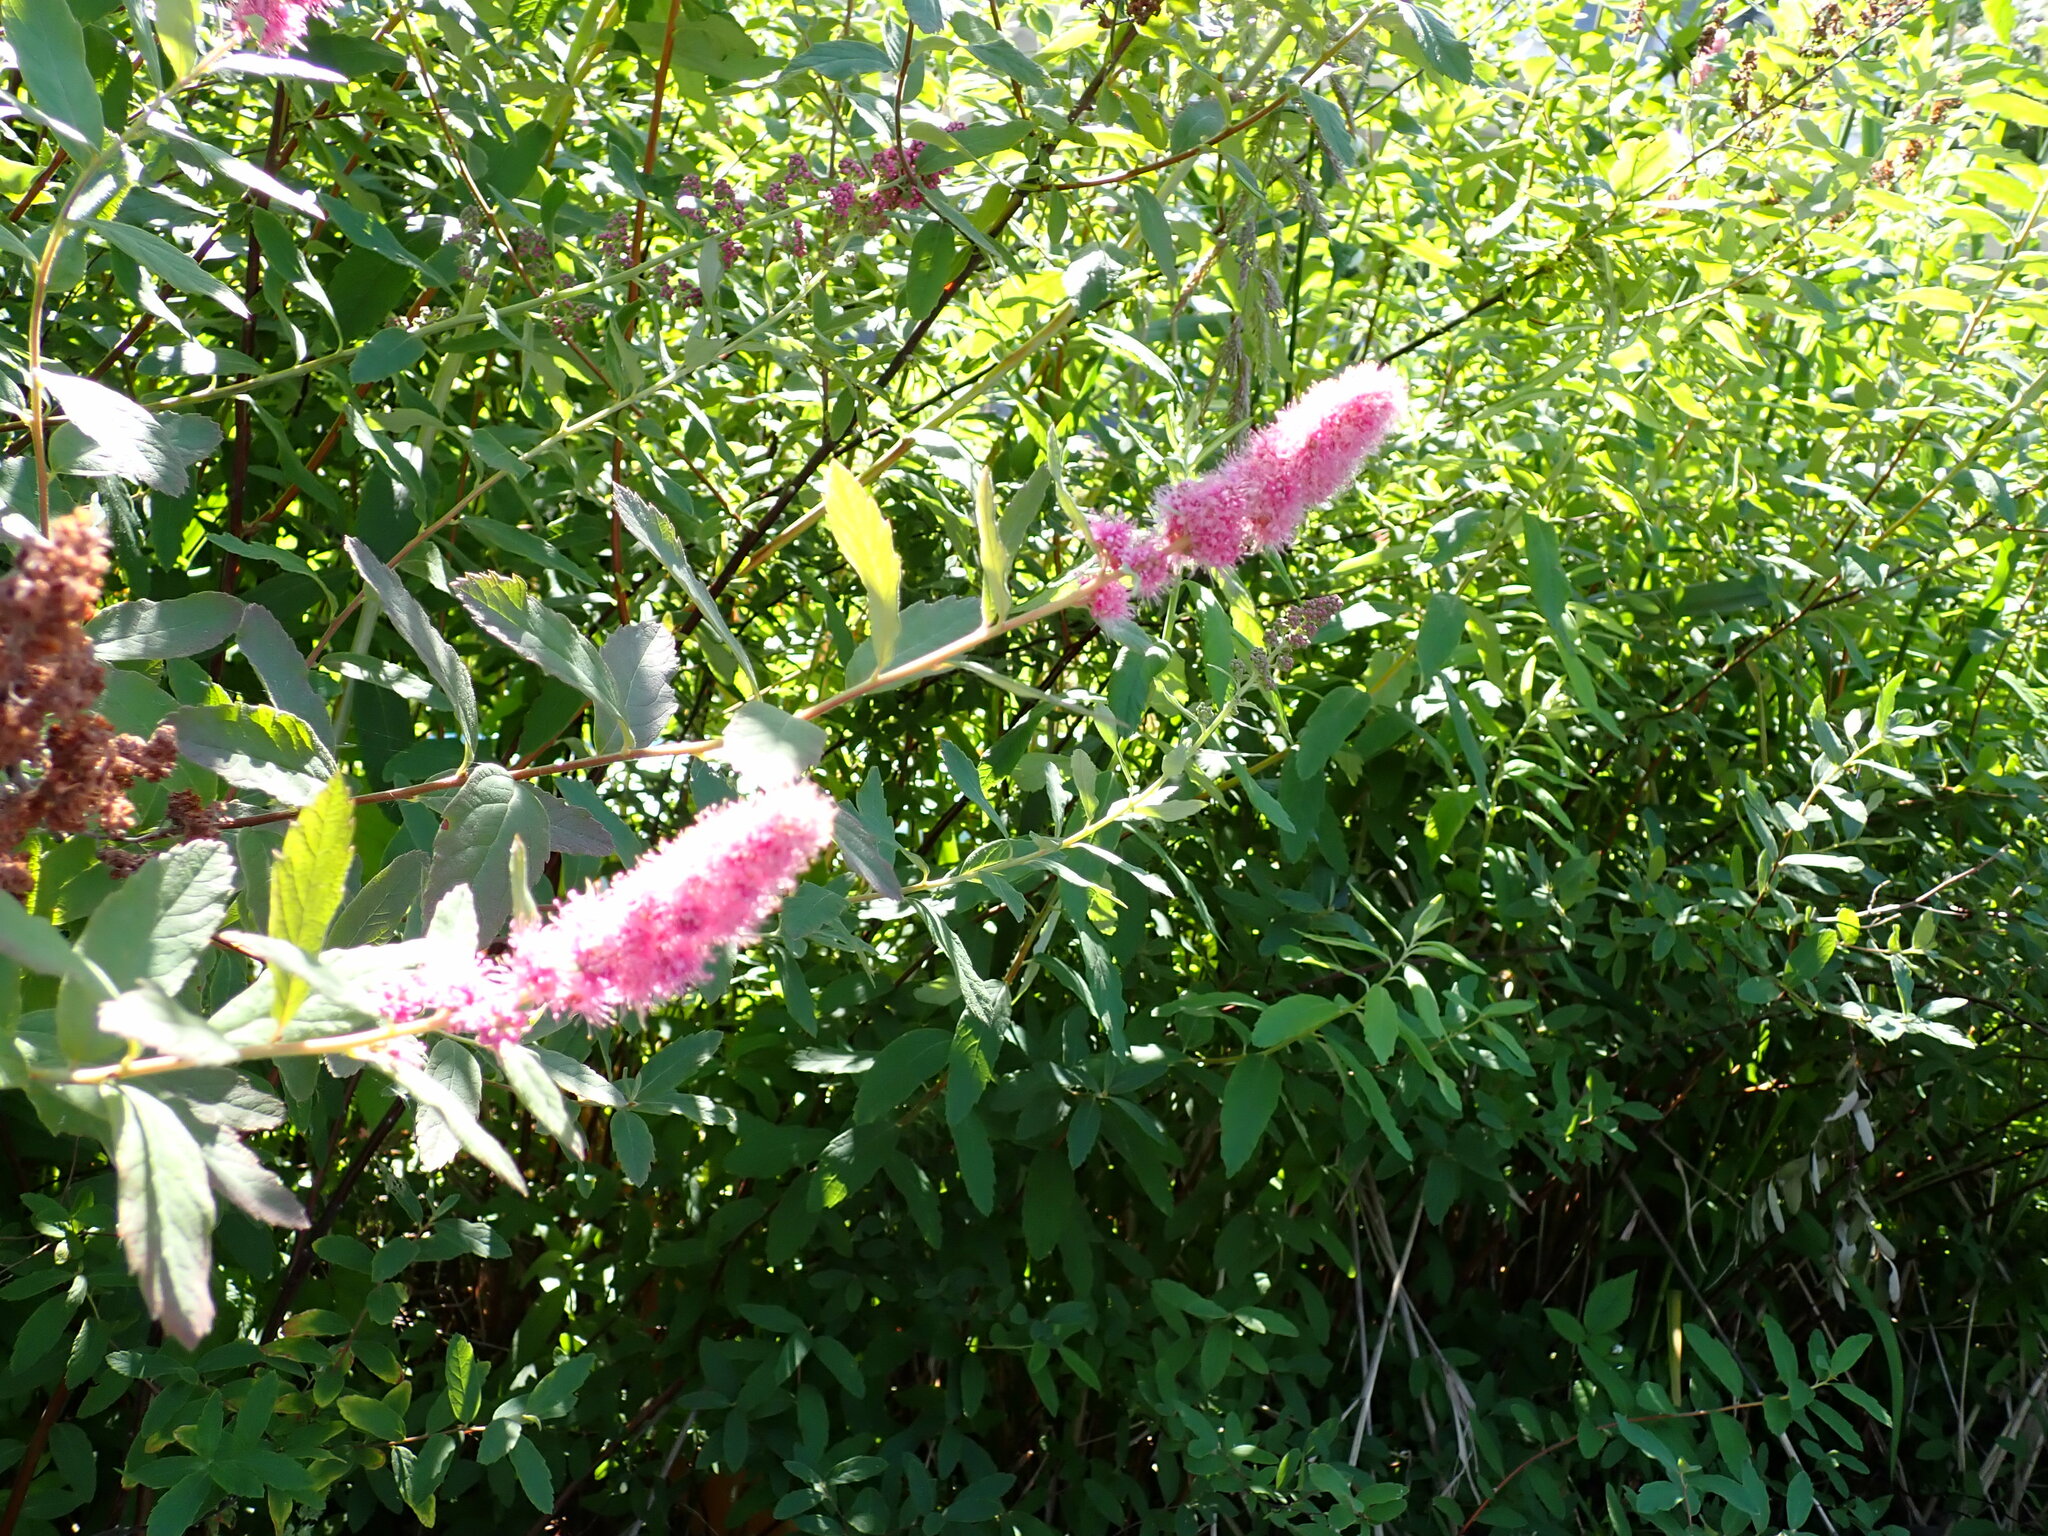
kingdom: Plantae
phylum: Tracheophyta
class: Magnoliopsida
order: Rosales
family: Rosaceae
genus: Spiraea
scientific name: Spiraea douglasii
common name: Steeplebush
